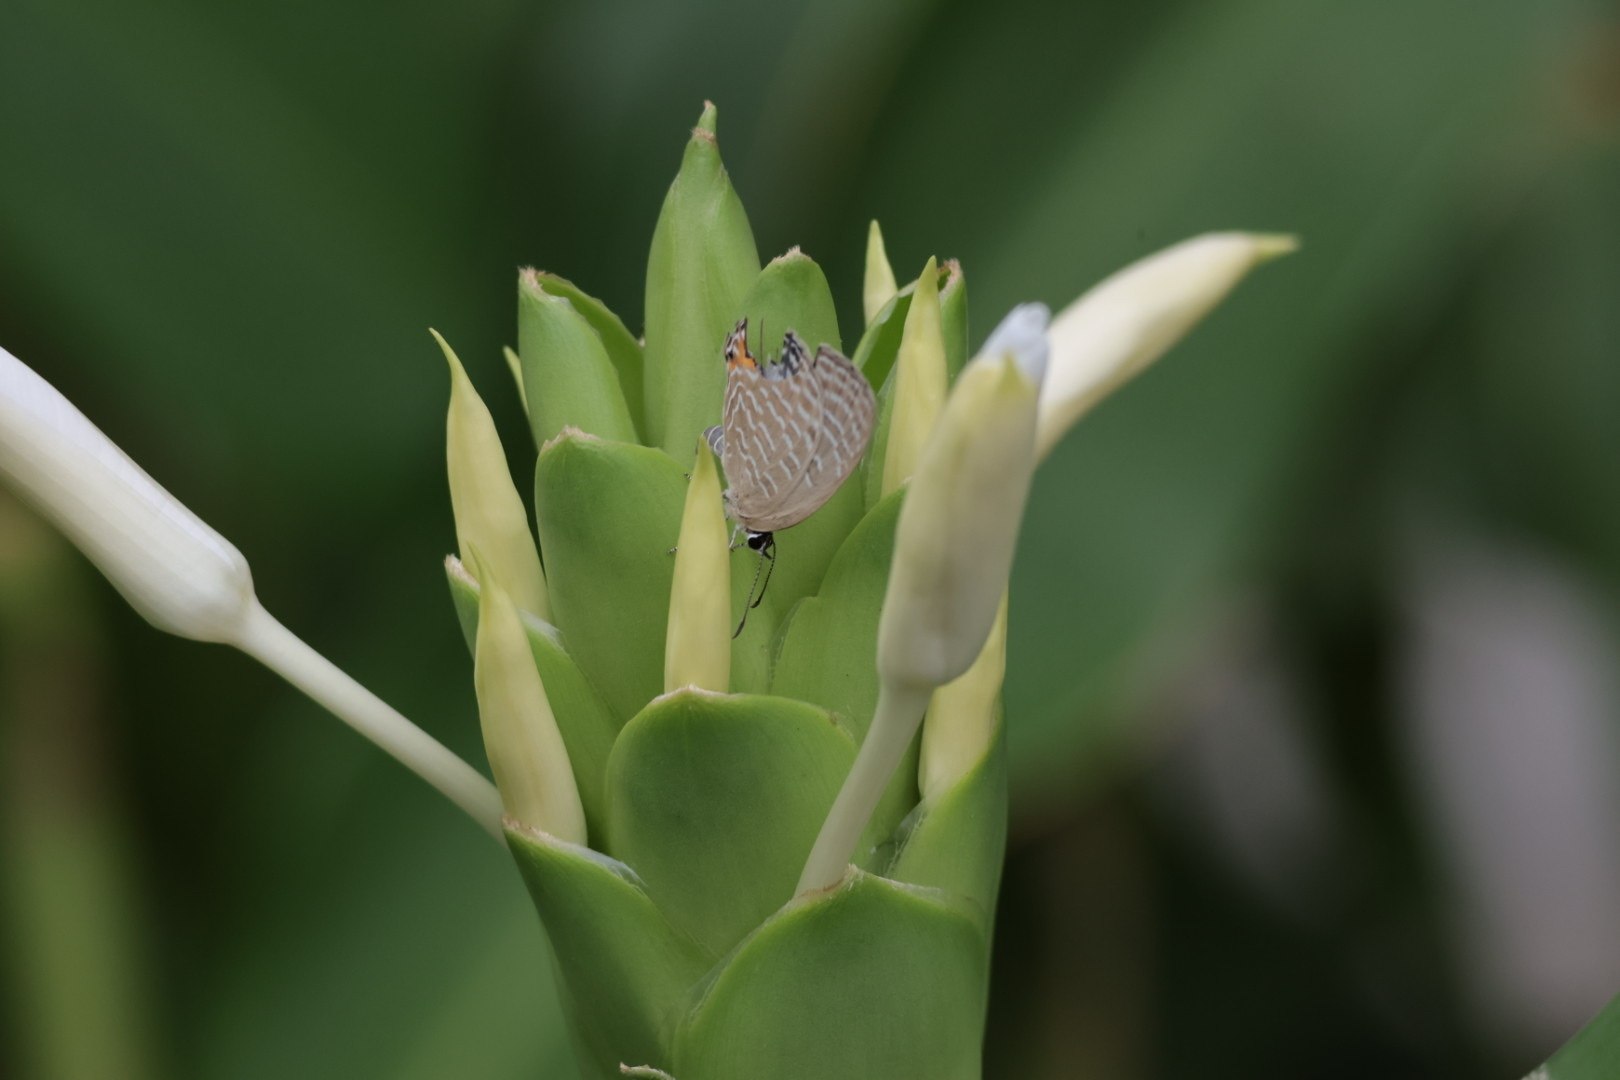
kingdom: Animalia
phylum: Arthropoda
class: Insecta
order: Lepidoptera
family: Lycaenidae
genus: Jamides
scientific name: Jamides alecto
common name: Metallic cerulean
